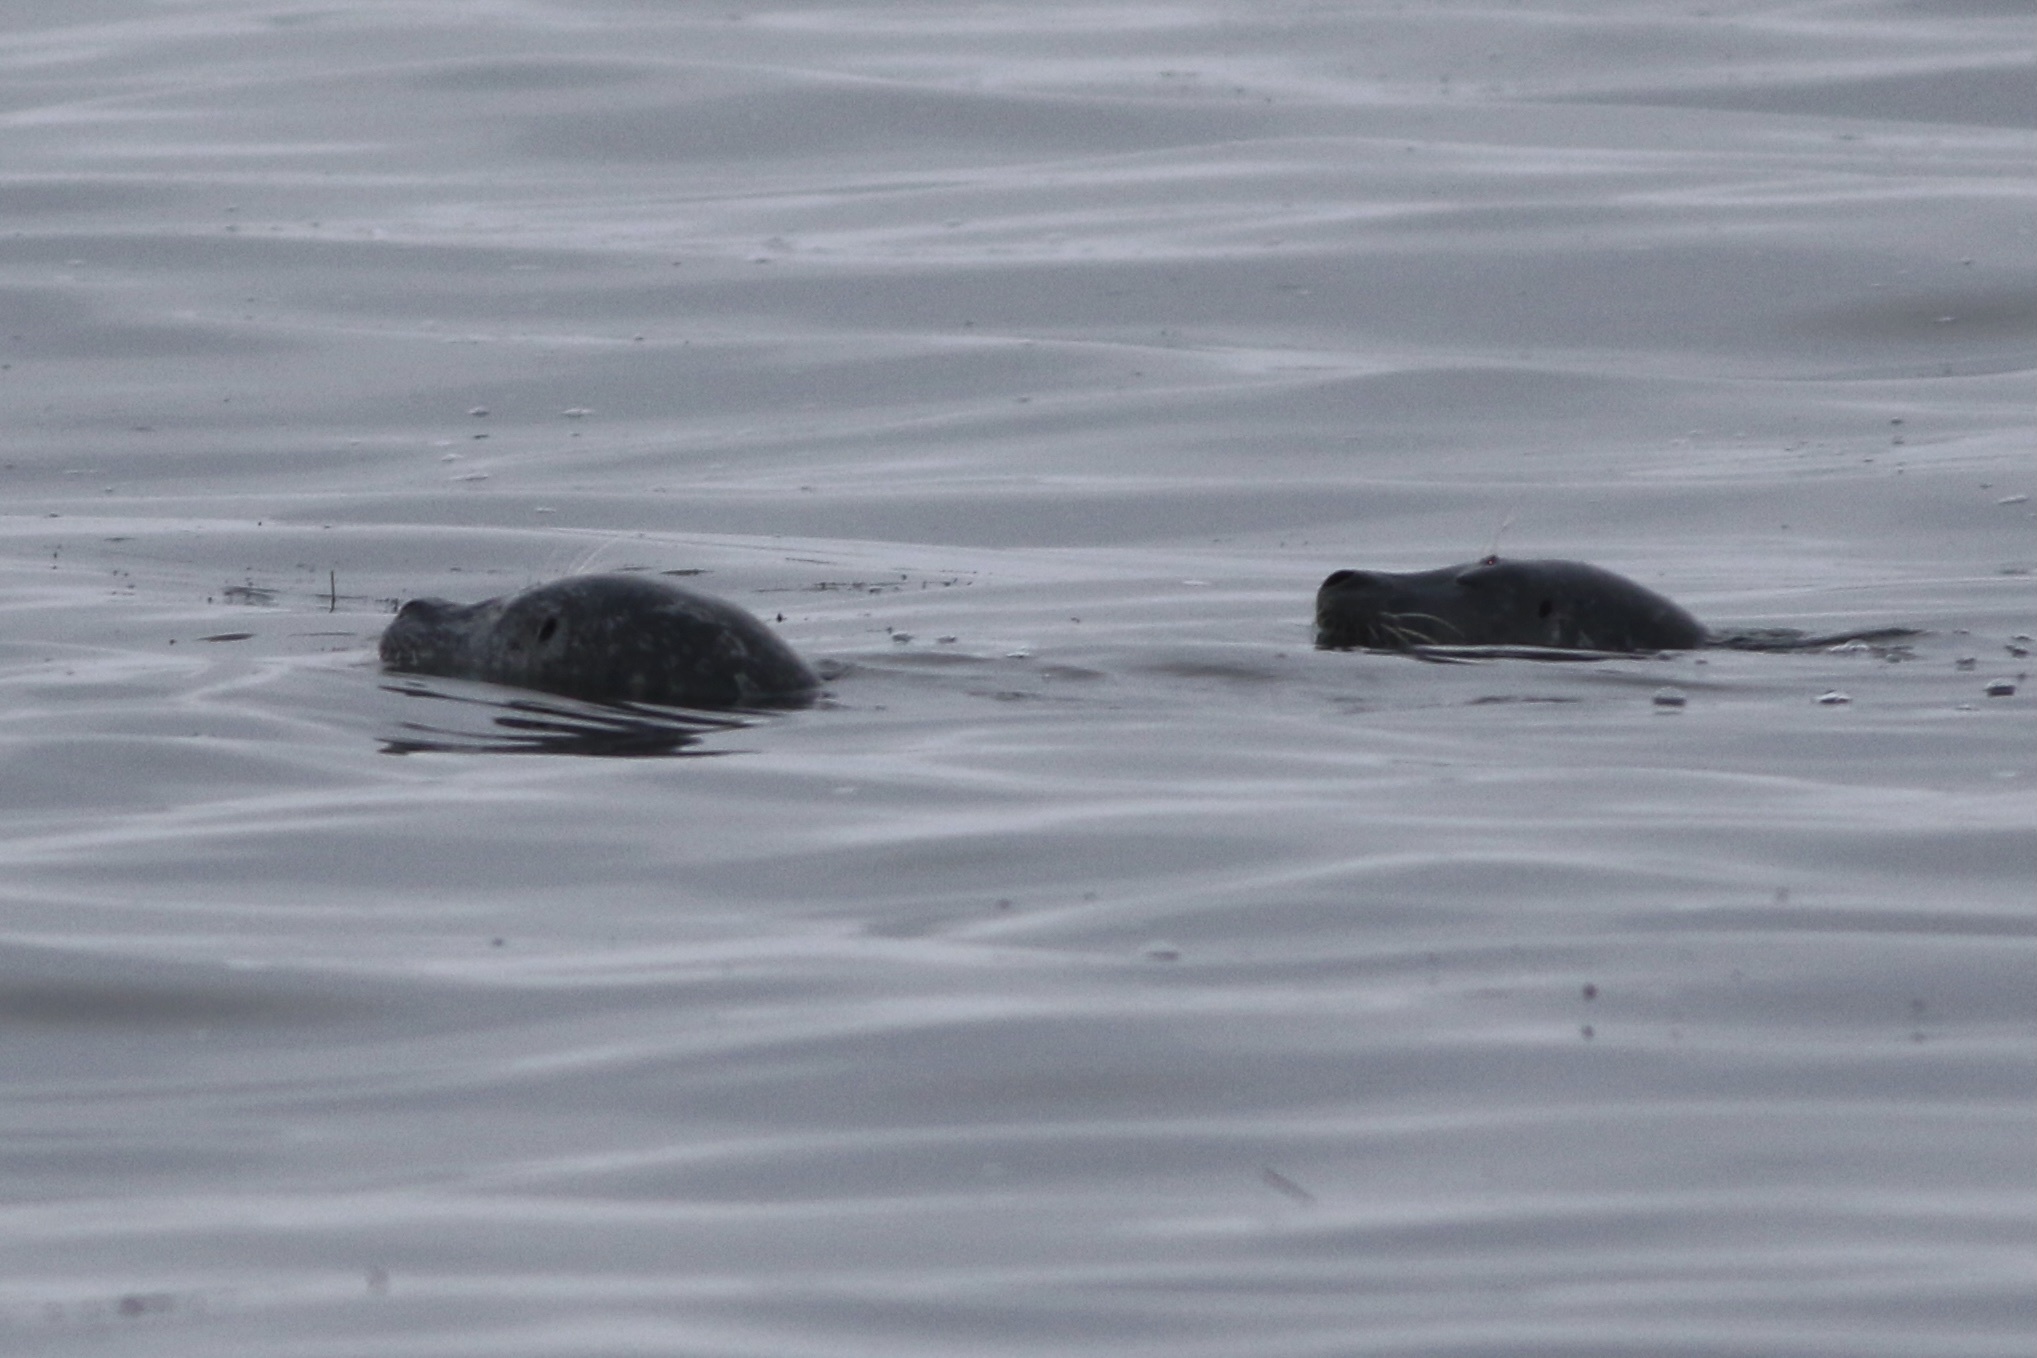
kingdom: Animalia
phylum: Chordata
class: Mammalia
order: Carnivora
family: Phocidae
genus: Phoca
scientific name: Phoca vitulina
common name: Harbor seal
